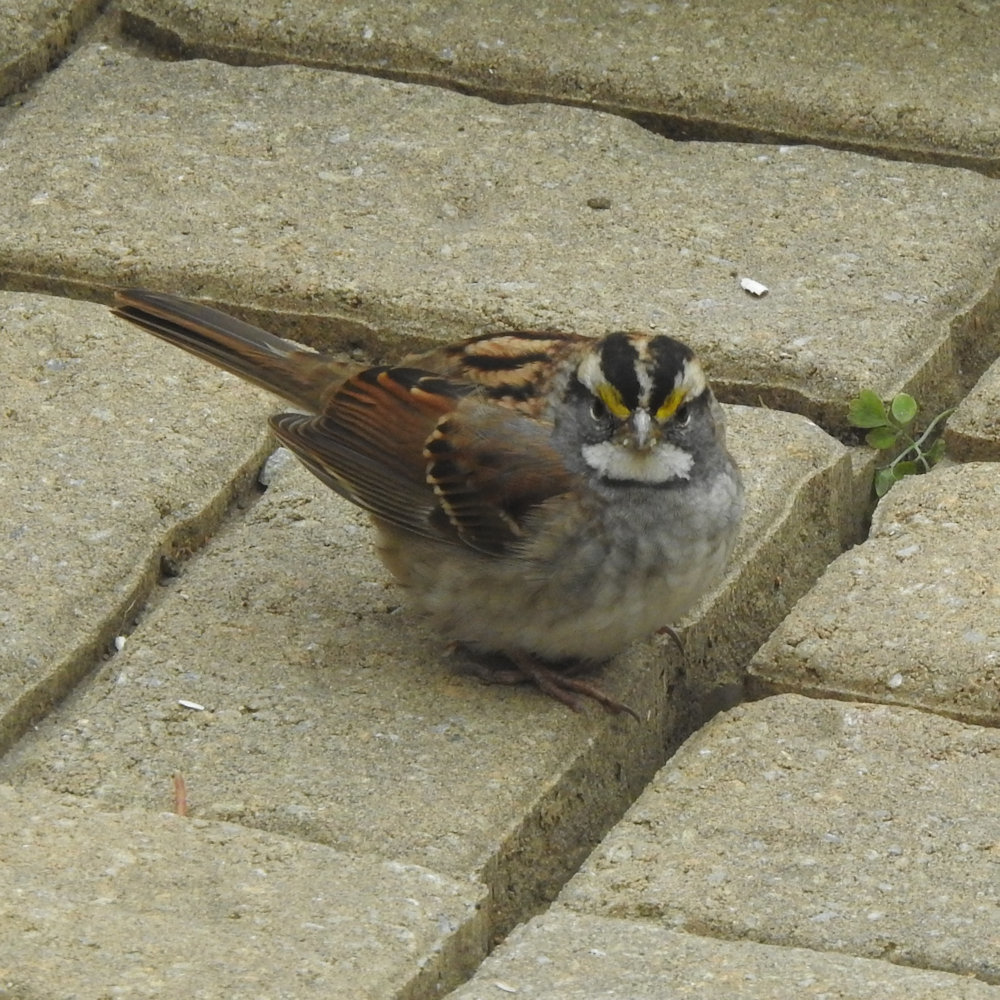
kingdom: Animalia
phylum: Chordata
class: Aves
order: Passeriformes
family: Passerellidae
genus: Zonotrichia
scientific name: Zonotrichia albicollis
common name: White-throated sparrow
